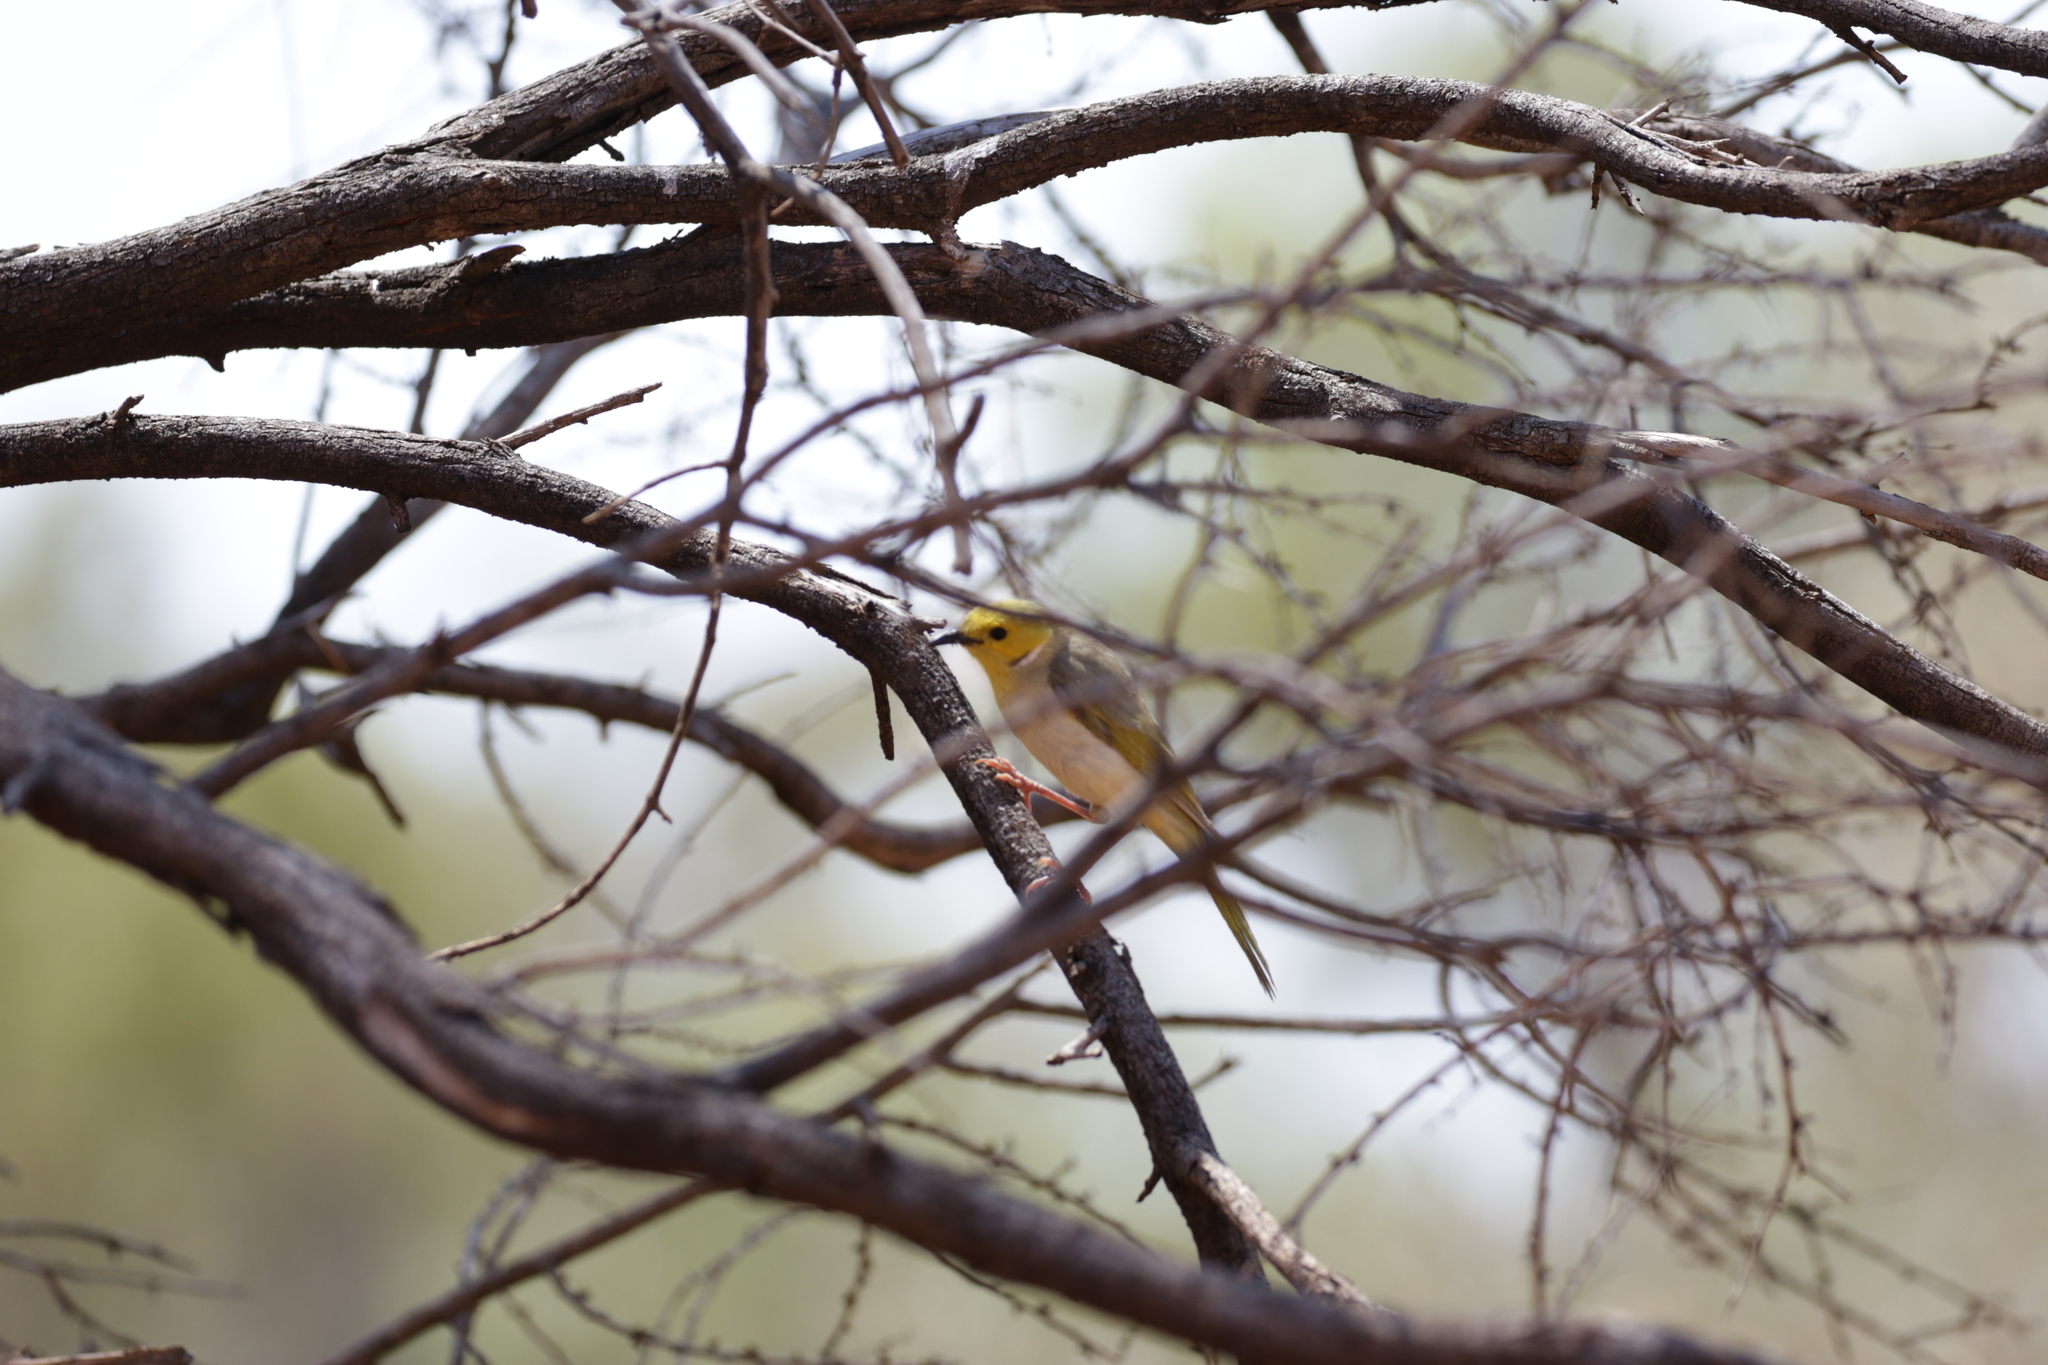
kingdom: Animalia
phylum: Chordata
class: Aves
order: Passeriformes
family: Meliphagidae
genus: Ptilotula
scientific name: Ptilotula penicillata
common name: White-plumed honeyeater
